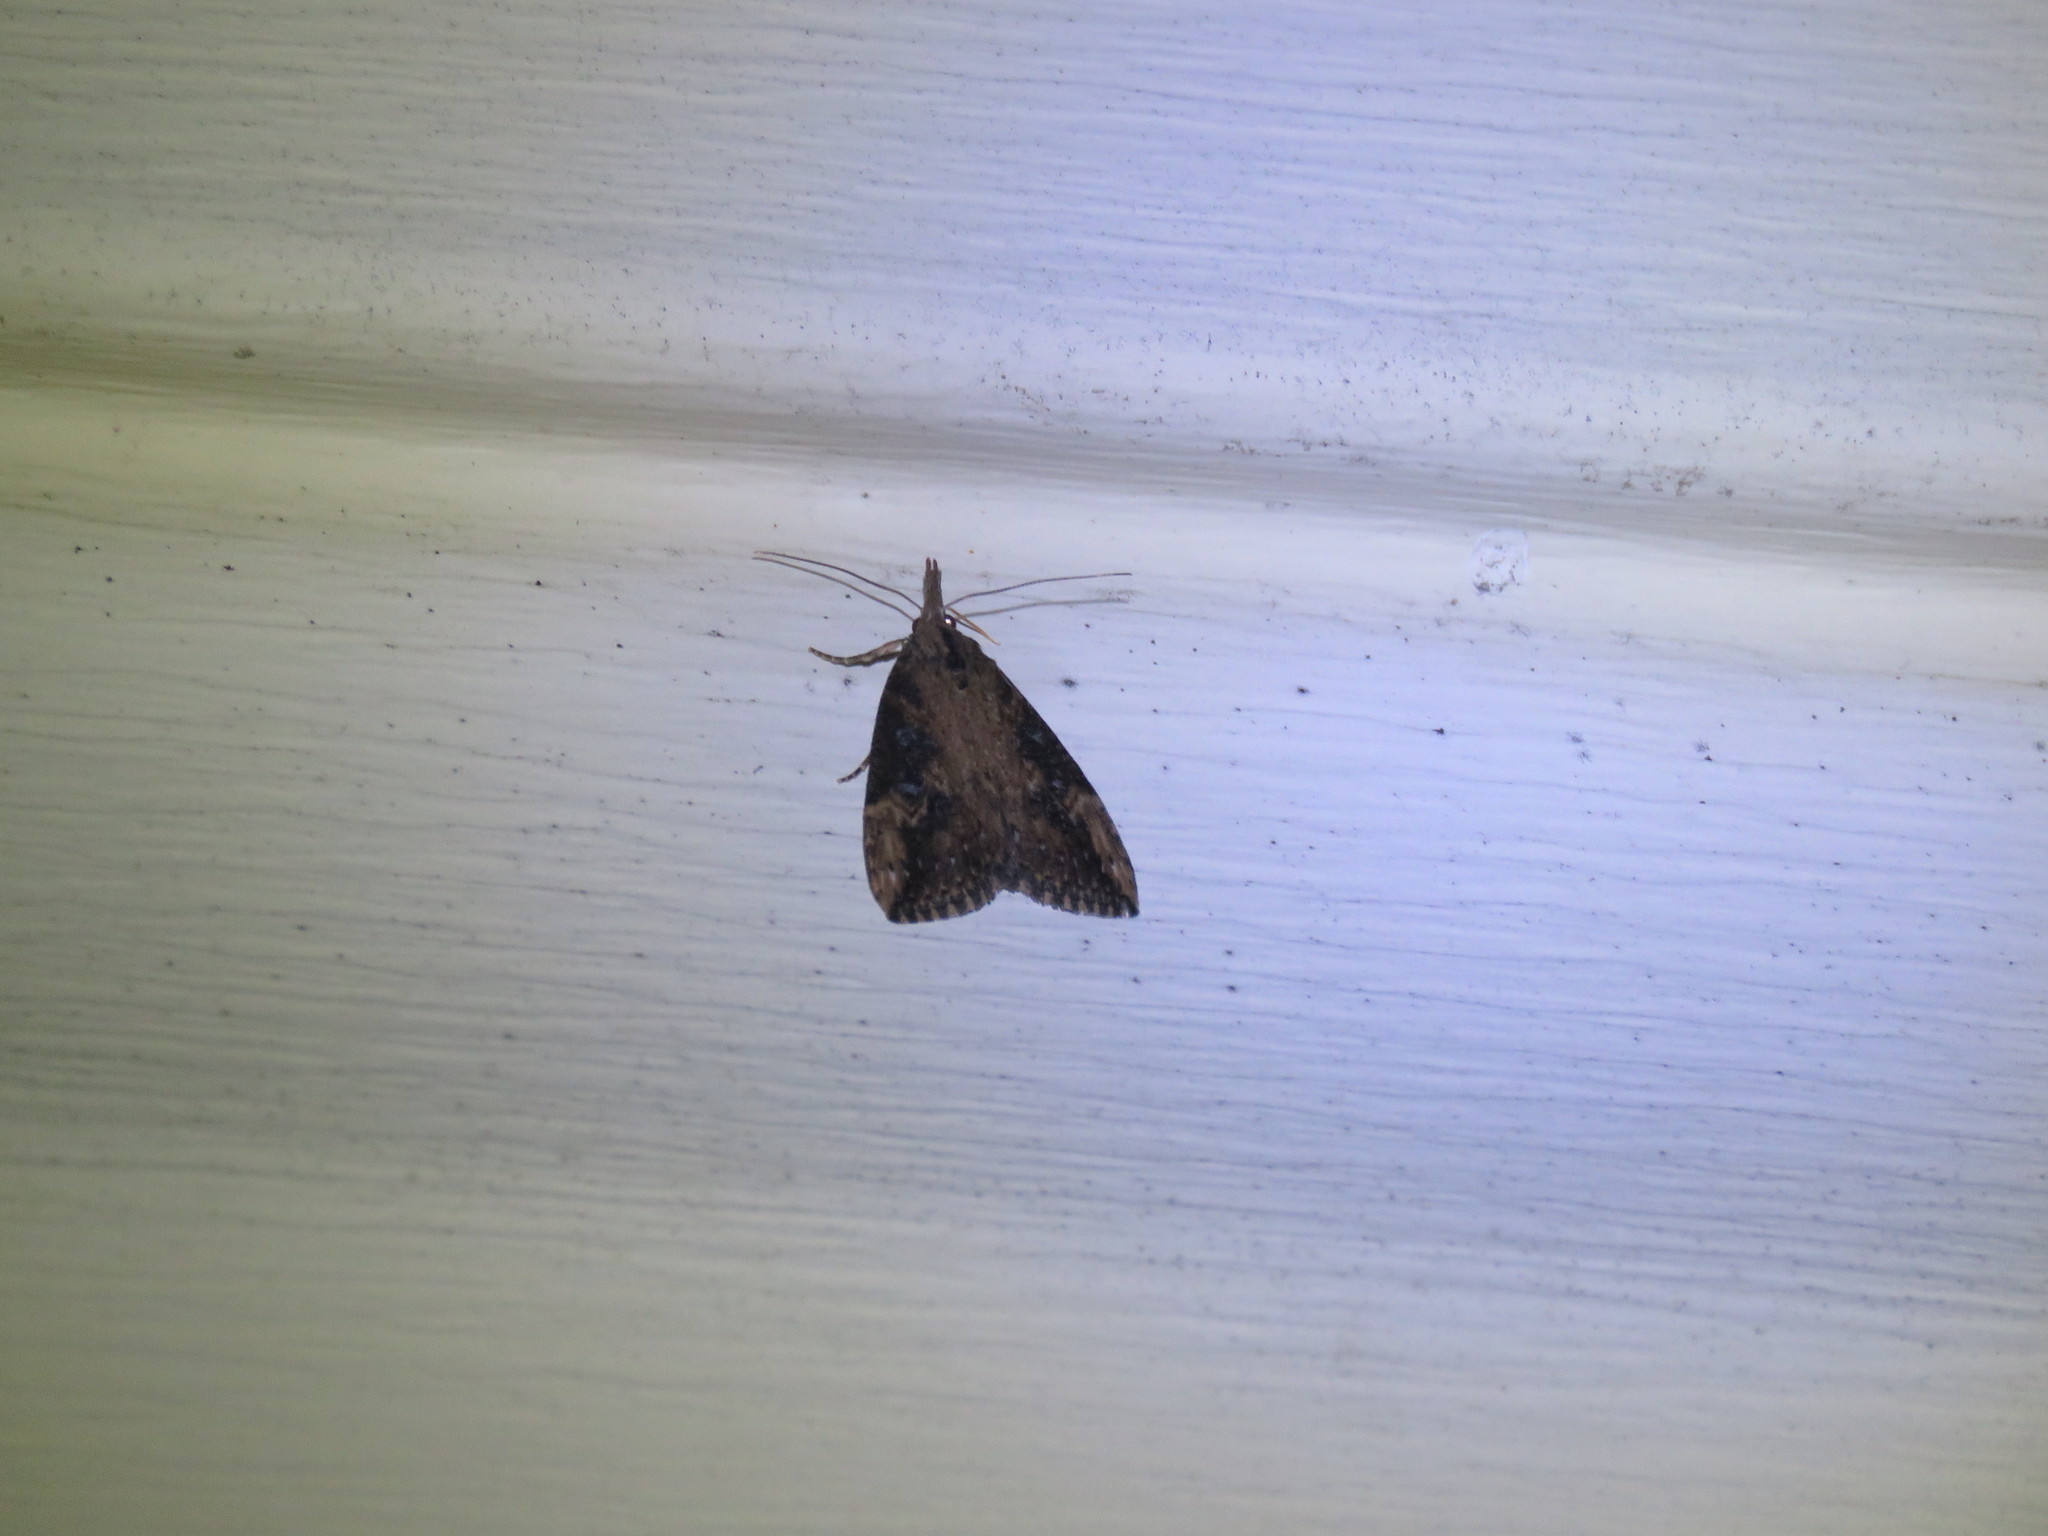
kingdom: Animalia
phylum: Arthropoda
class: Insecta
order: Lepidoptera
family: Erebidae
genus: Hypena
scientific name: Hypena scabra
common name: Green cloverworm
